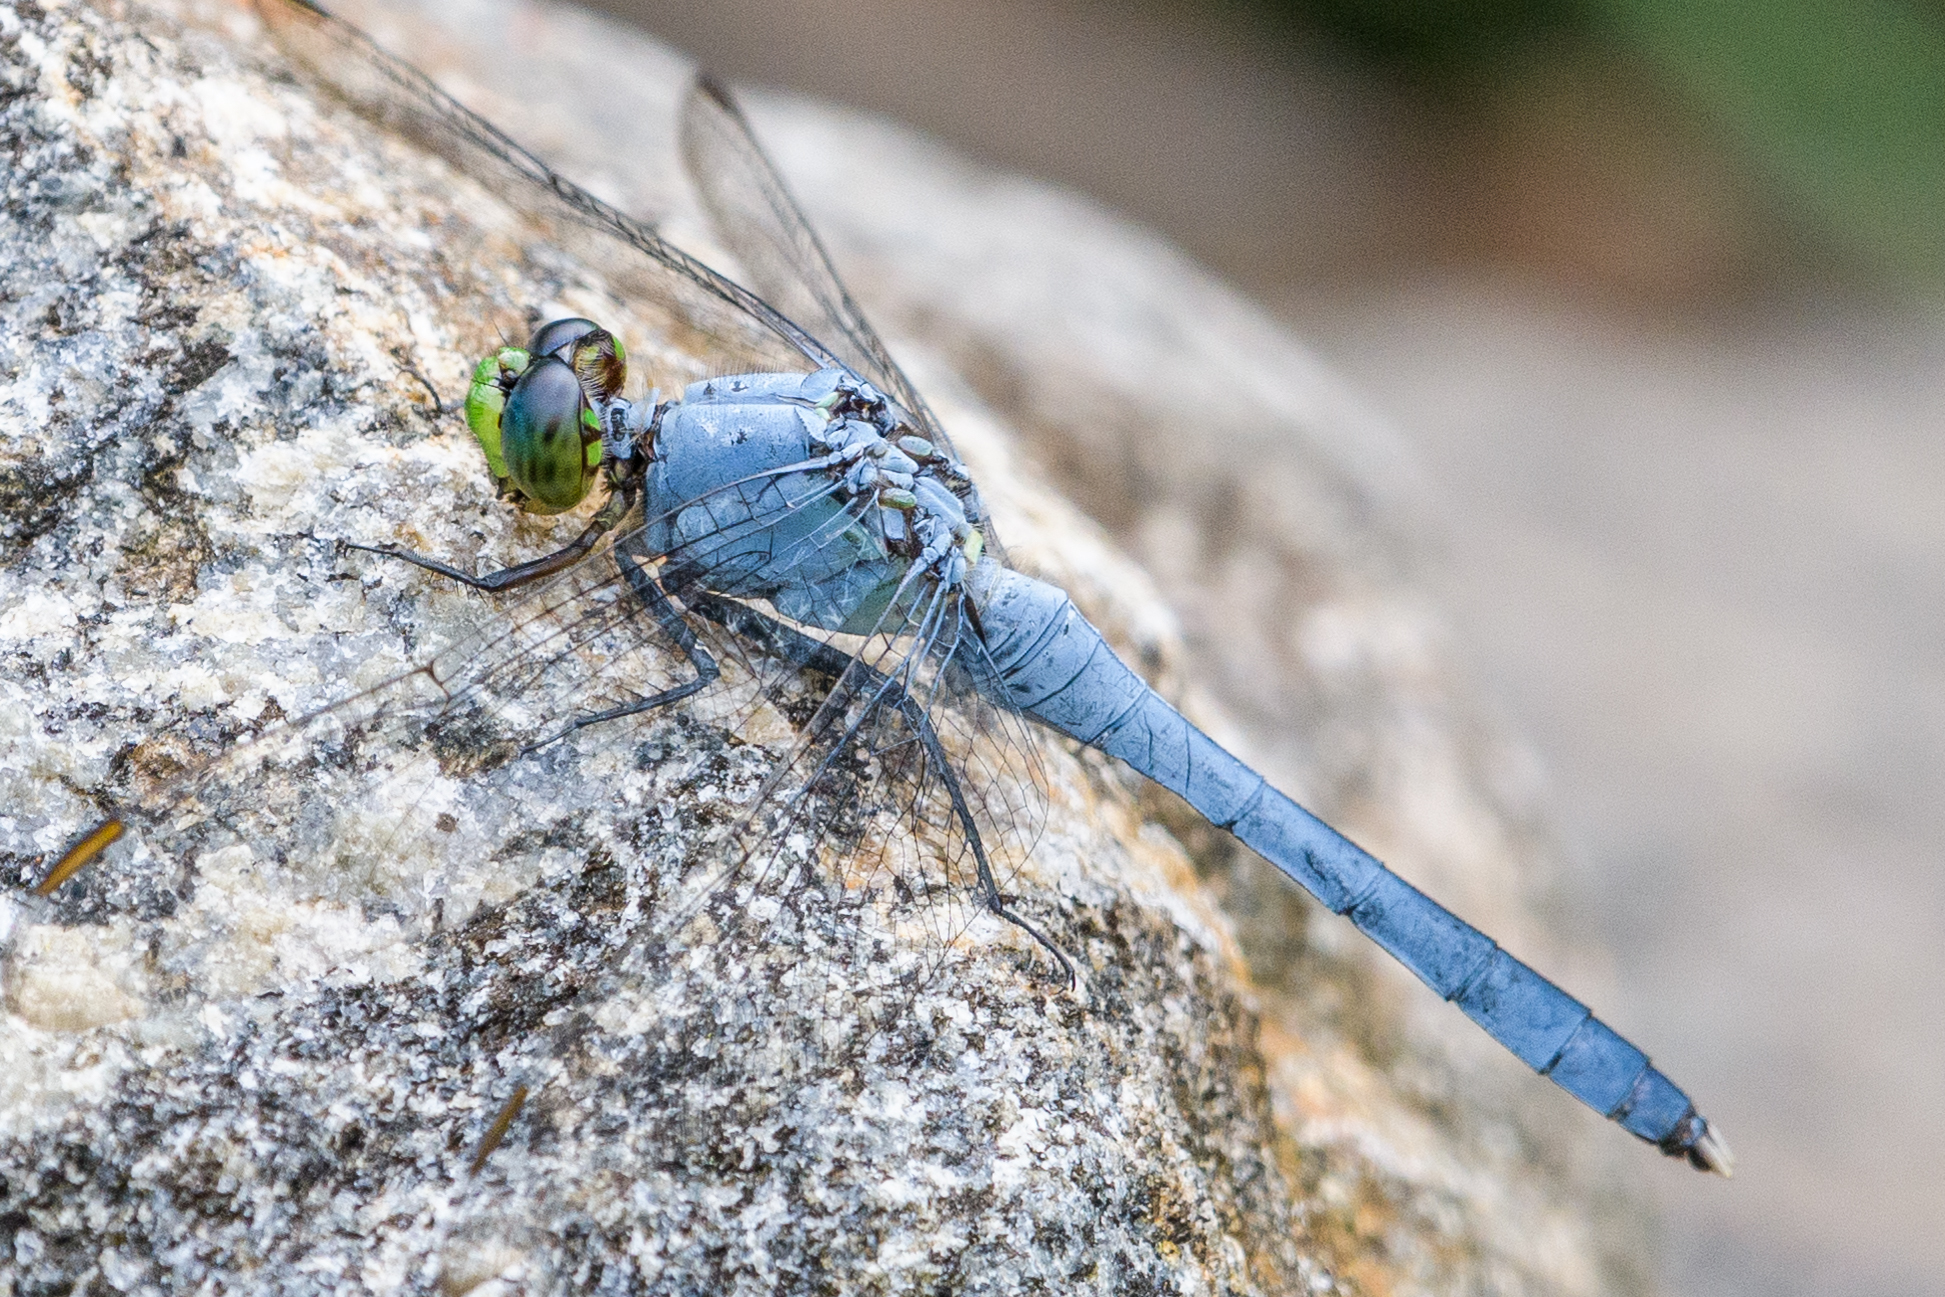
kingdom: Animalia
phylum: Arthropoda
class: Insecta
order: Odonata
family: Libellulidae
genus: Erythemis
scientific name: Erythemis simplicicollis
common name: Eastern pondhawk
